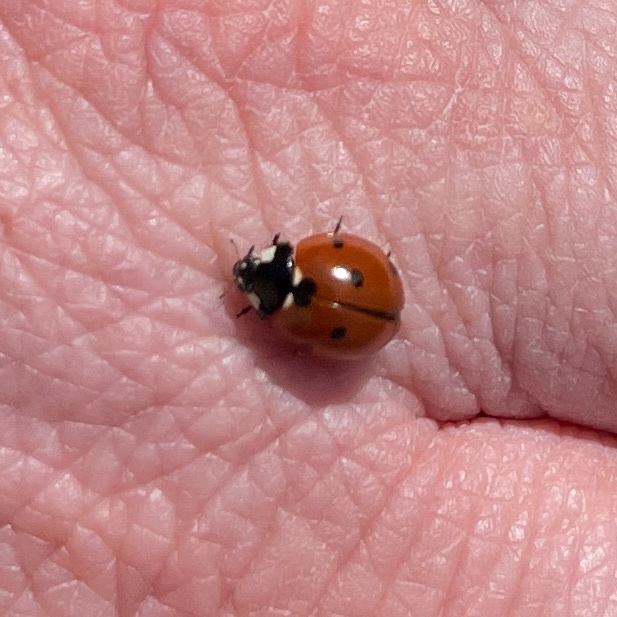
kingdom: Animalia
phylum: Arthropoda
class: Insecta
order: Coleoptera
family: Coccinellidae
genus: Coccinella
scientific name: Coccinella septempunctata
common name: Sevenspotted lady beetle
